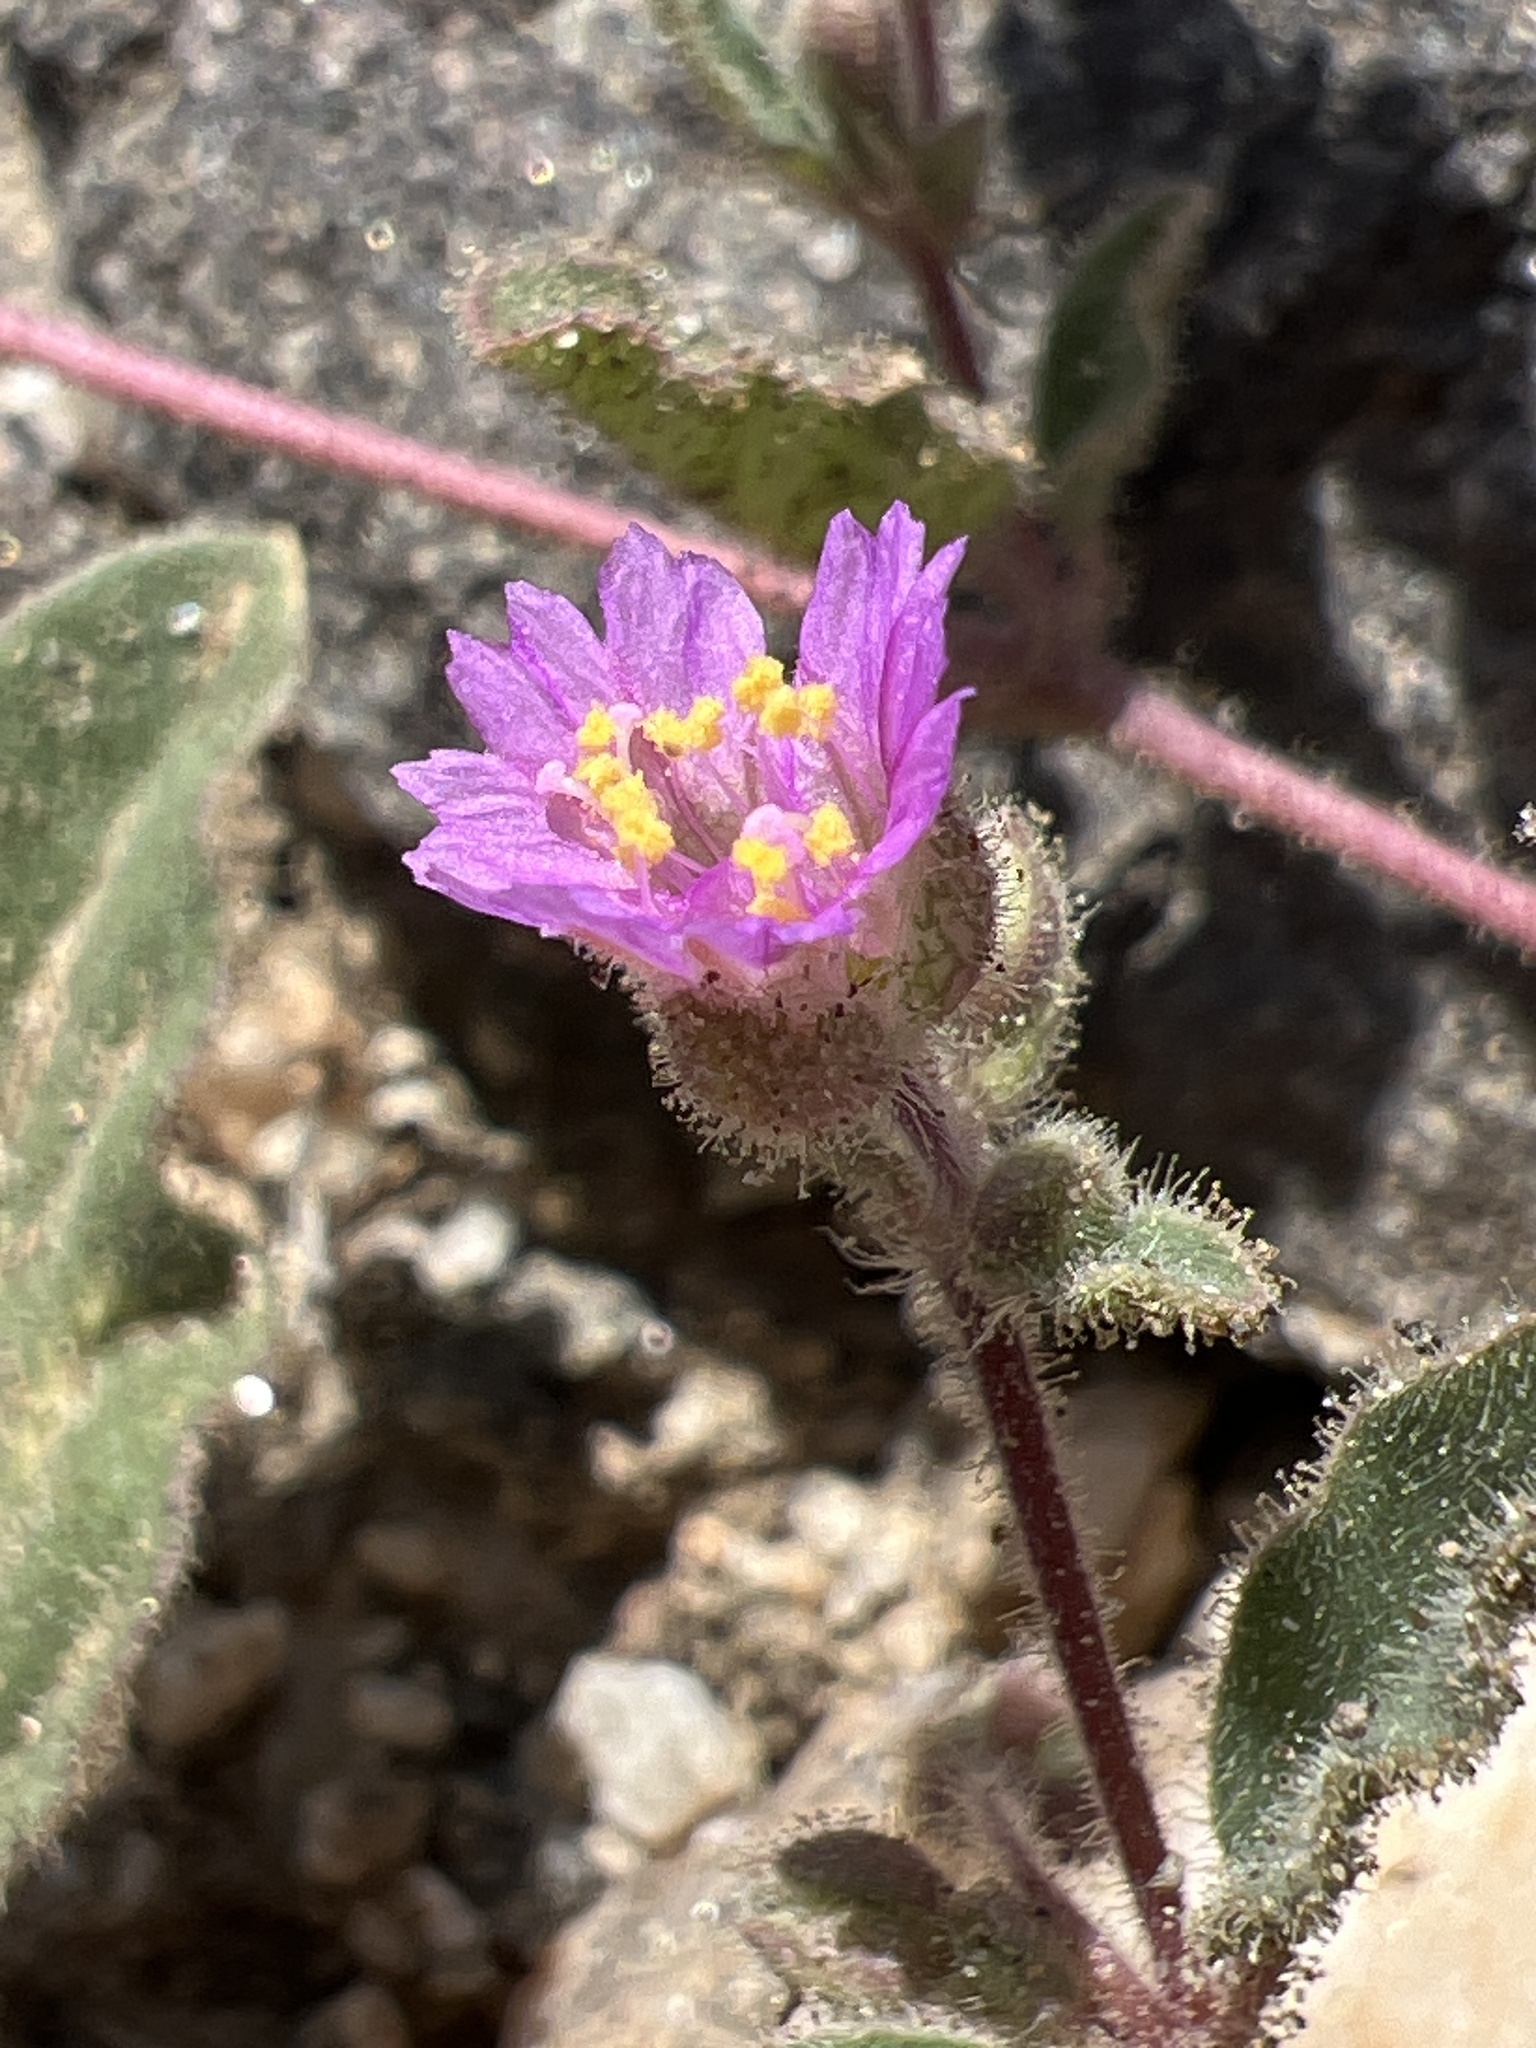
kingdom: Plantae
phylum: Tracheophyta
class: Magnoliopsida
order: Caryophyllales
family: Nyctaginaceae
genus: Allionia
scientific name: Allionia incarnata
